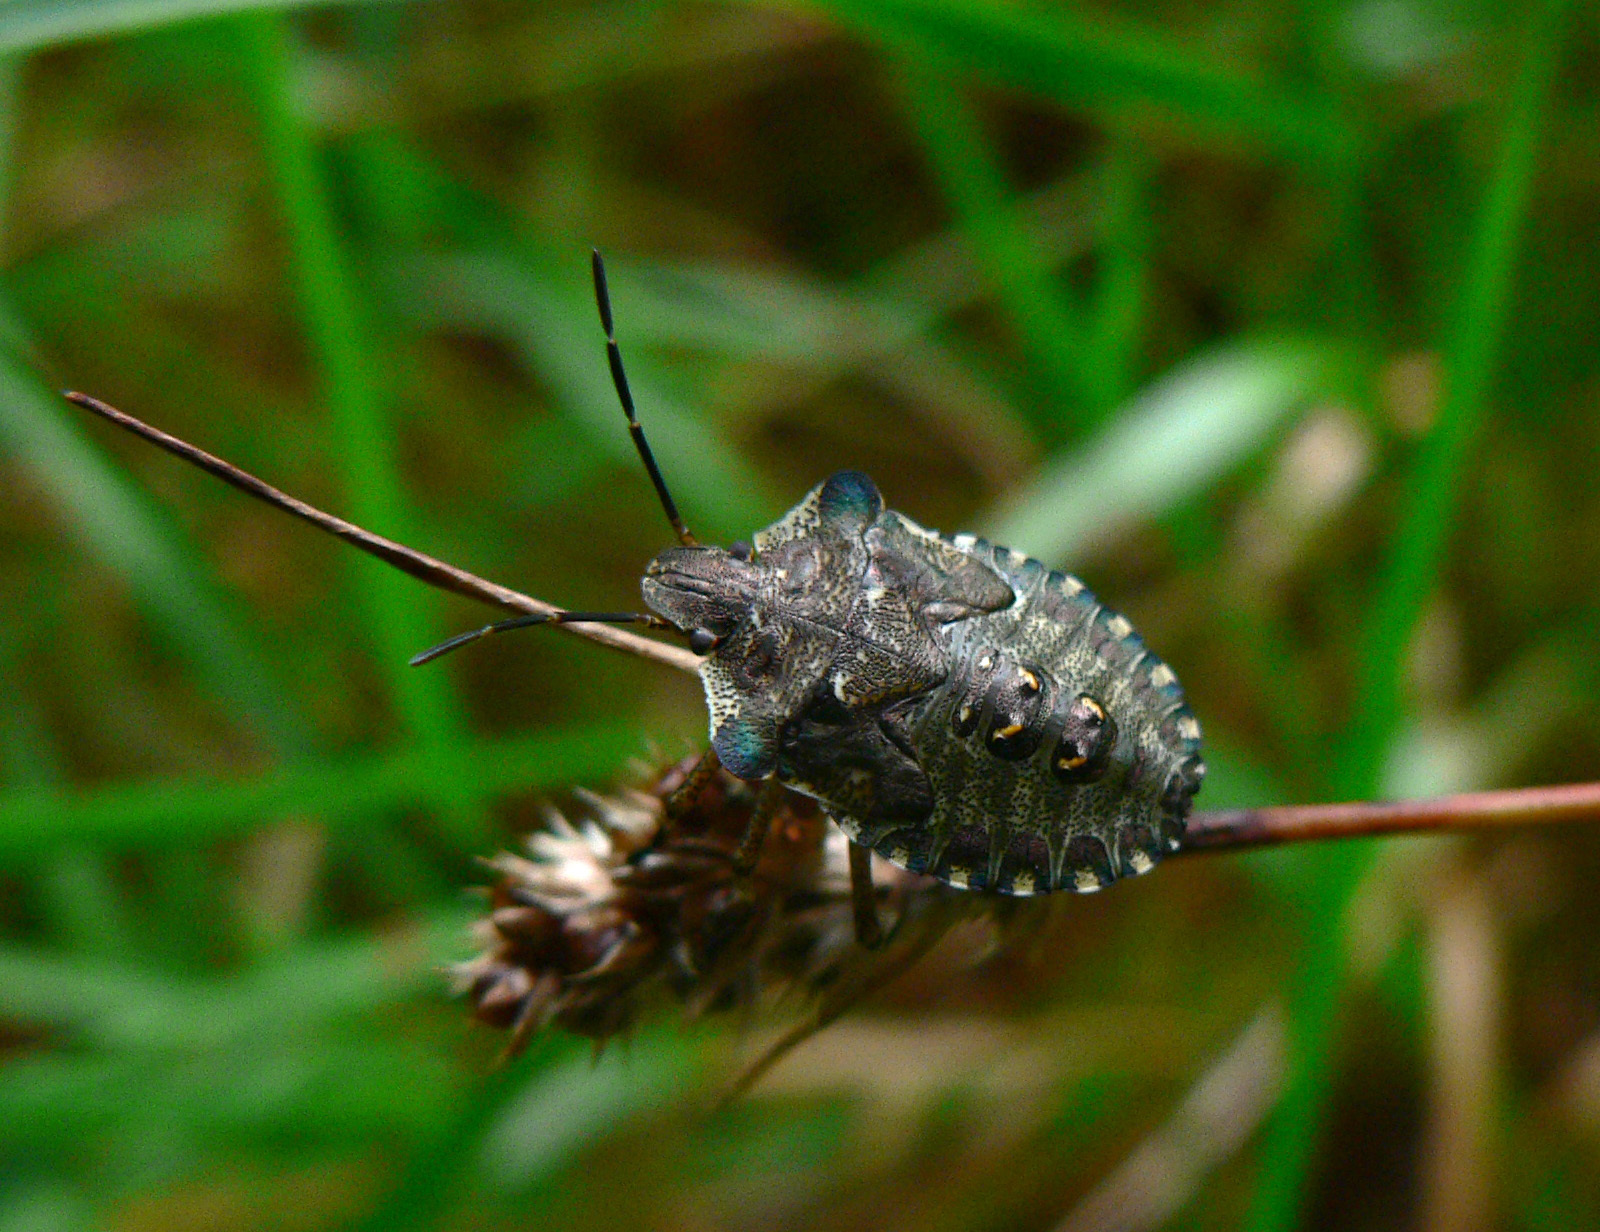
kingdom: Animalia
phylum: Arthropoda
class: Insecta
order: Hemiptera
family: Pentatomidae
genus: Pentatoma
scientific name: Pentatoma rufipes
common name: Forest bug
